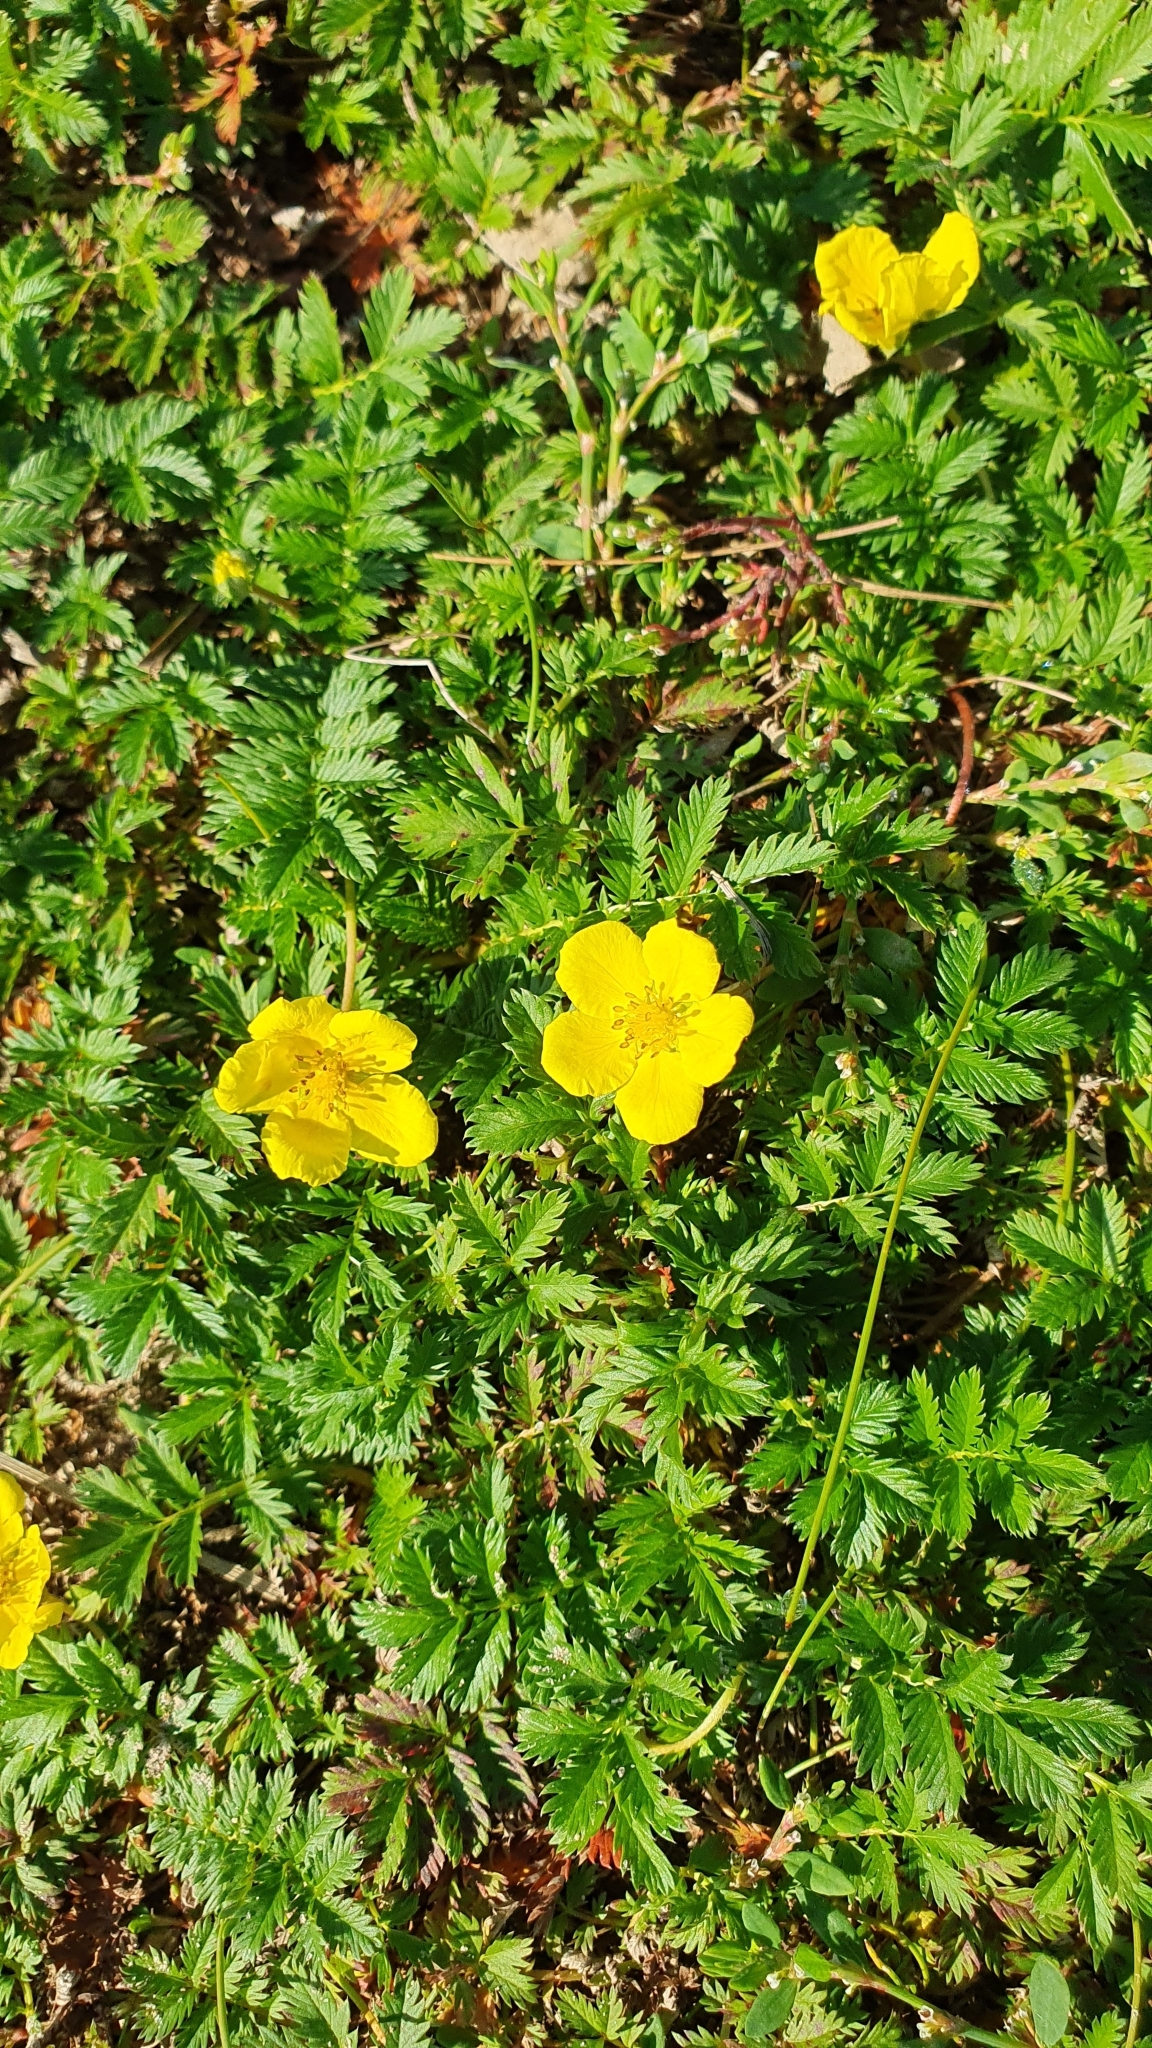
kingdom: Plantae
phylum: Tracheophyta
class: Magnoliopsida
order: Rosales
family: Rosaceae
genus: Argentina
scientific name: Argentina anserina
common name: Common silverweed
